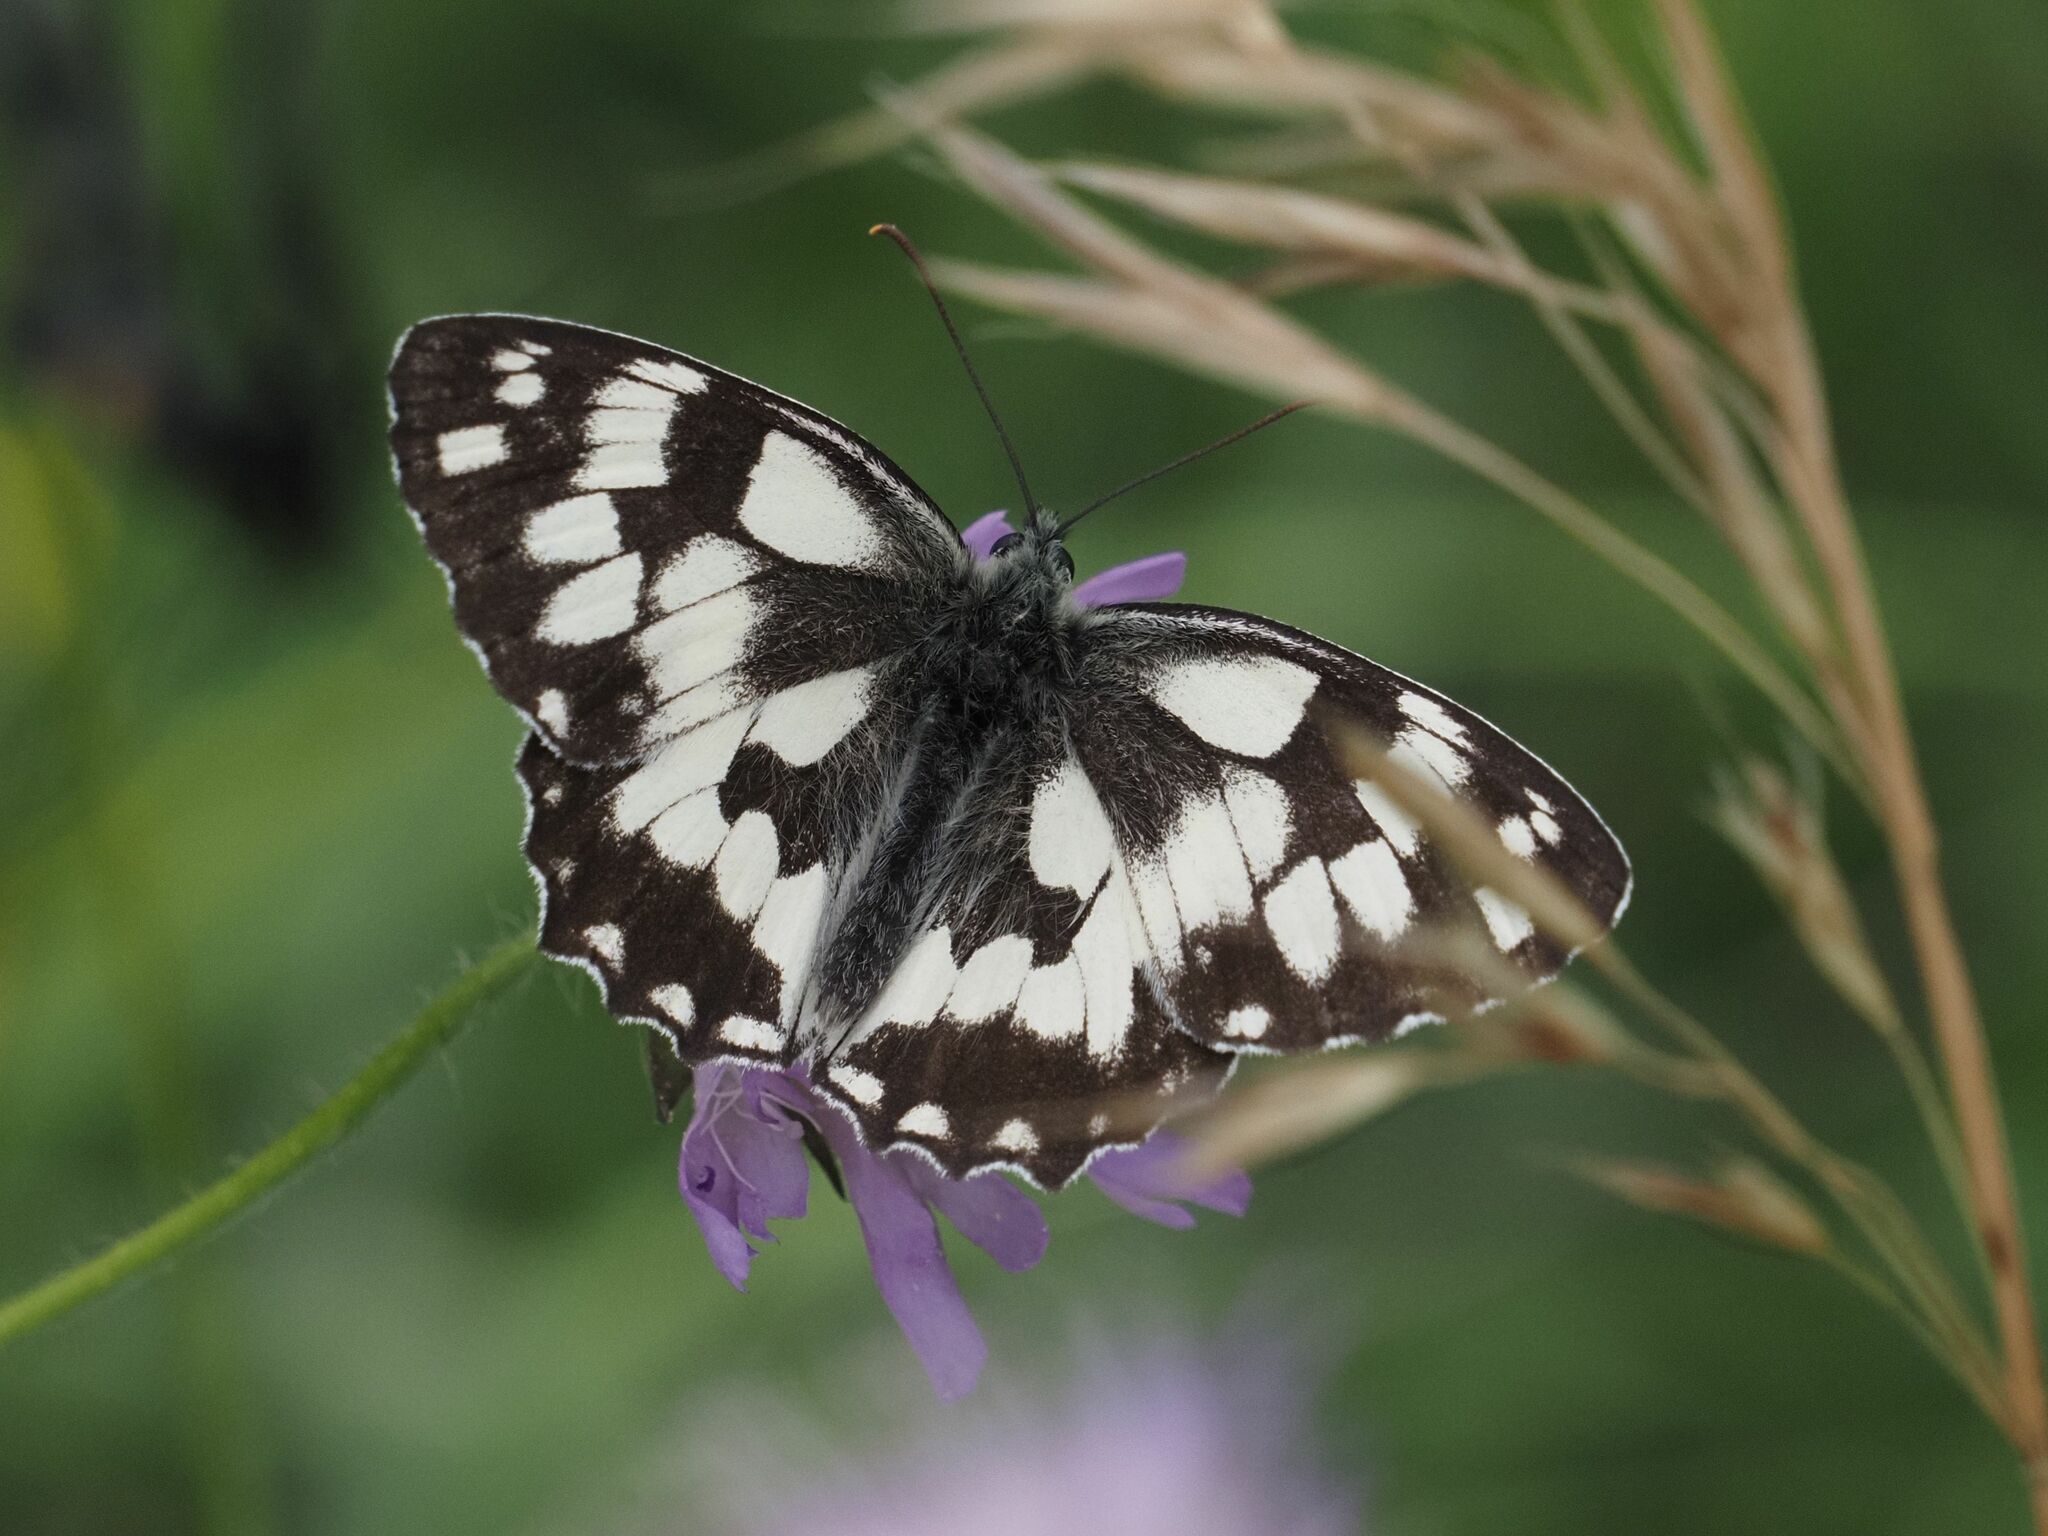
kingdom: Animalia
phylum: Arthropoda
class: Insecta
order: Lepidoptera
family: Nymphalidae
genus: Melanargia
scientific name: Melanargia galathea
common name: Marbled white
